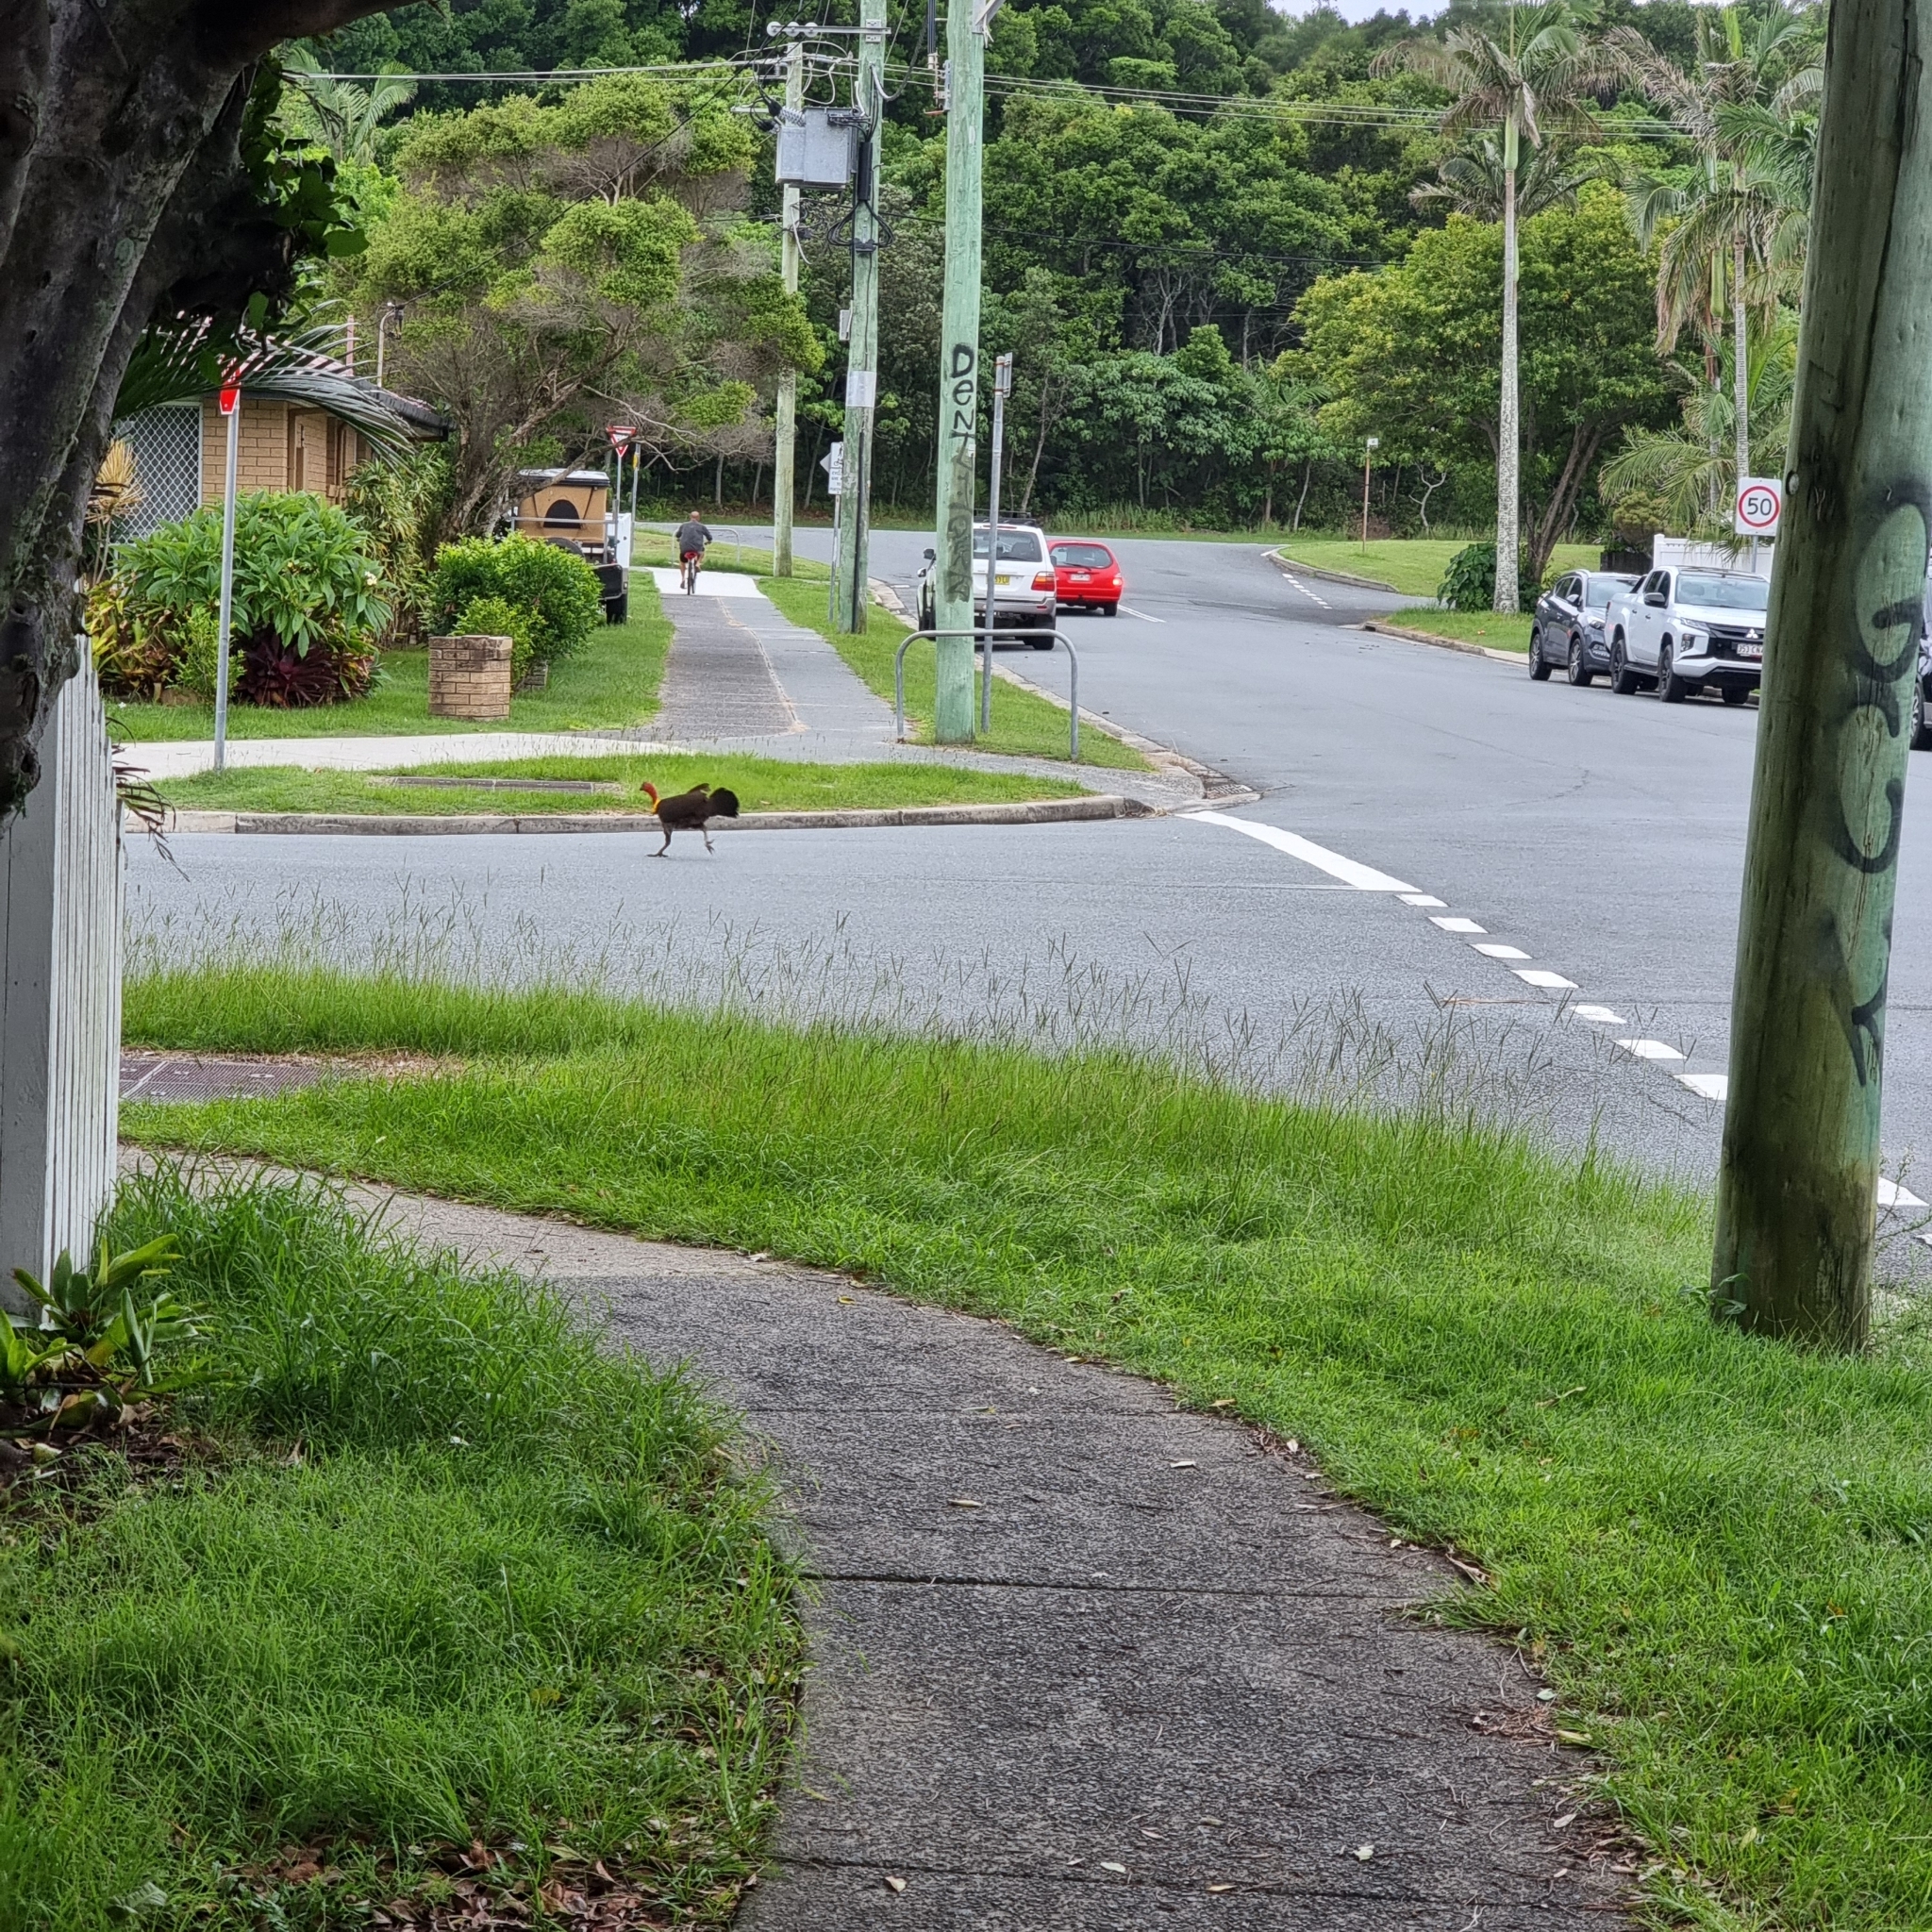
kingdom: Animalia
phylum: Chordata
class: Aves
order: Galliformes
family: Megapodiidae
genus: Alectura
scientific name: Alectura lathami
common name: Australian brushturkey
